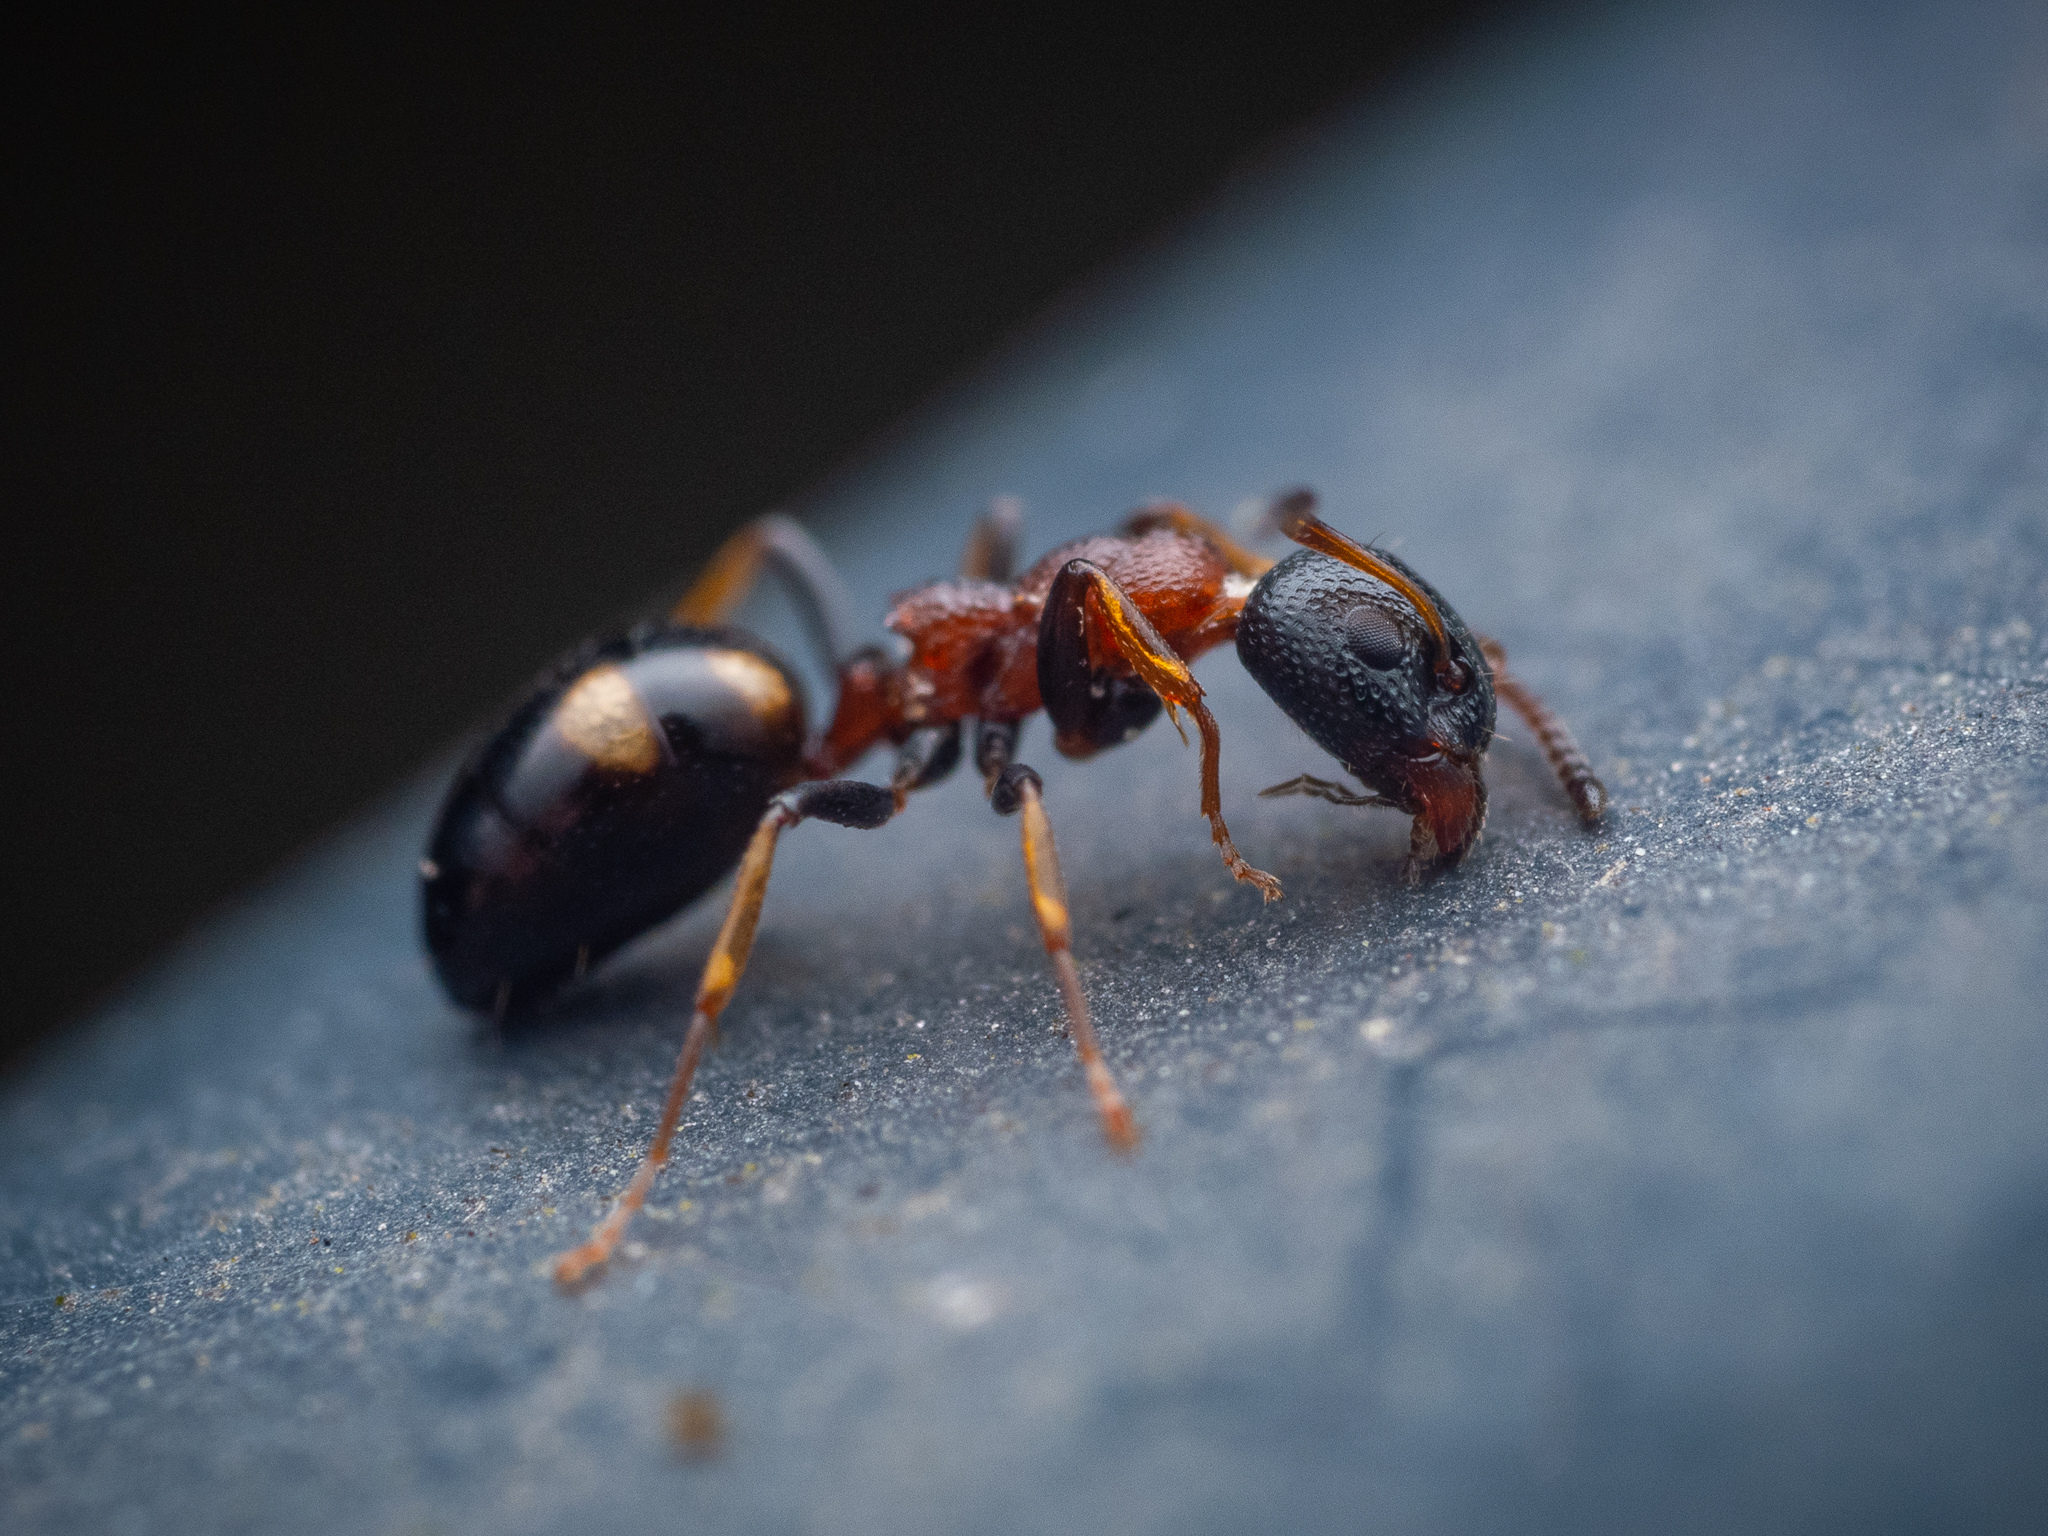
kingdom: Animalia
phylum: Arthropoda
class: Insecta
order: Hymenoptera
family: Formicidae
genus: Dolichoderus
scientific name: Dolichoderus quadripunctatus
